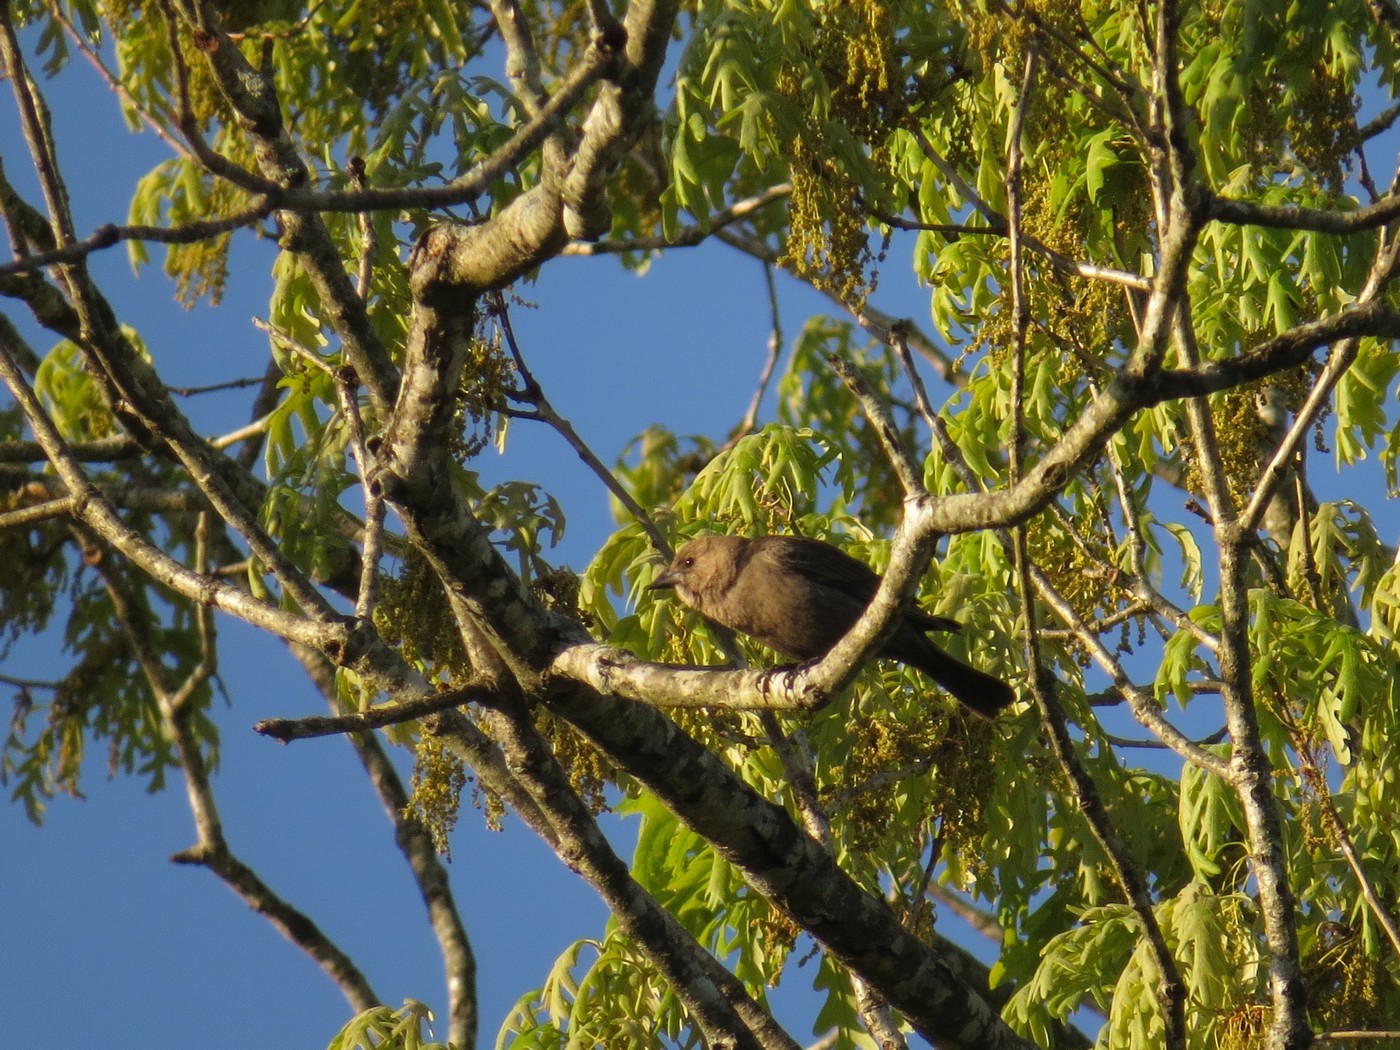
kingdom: Animalia
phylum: Chordata
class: Aves
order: Passeriformes
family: Icteridae
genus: Molothrus
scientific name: Molothrus ater
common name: Brown-headed cowbird
